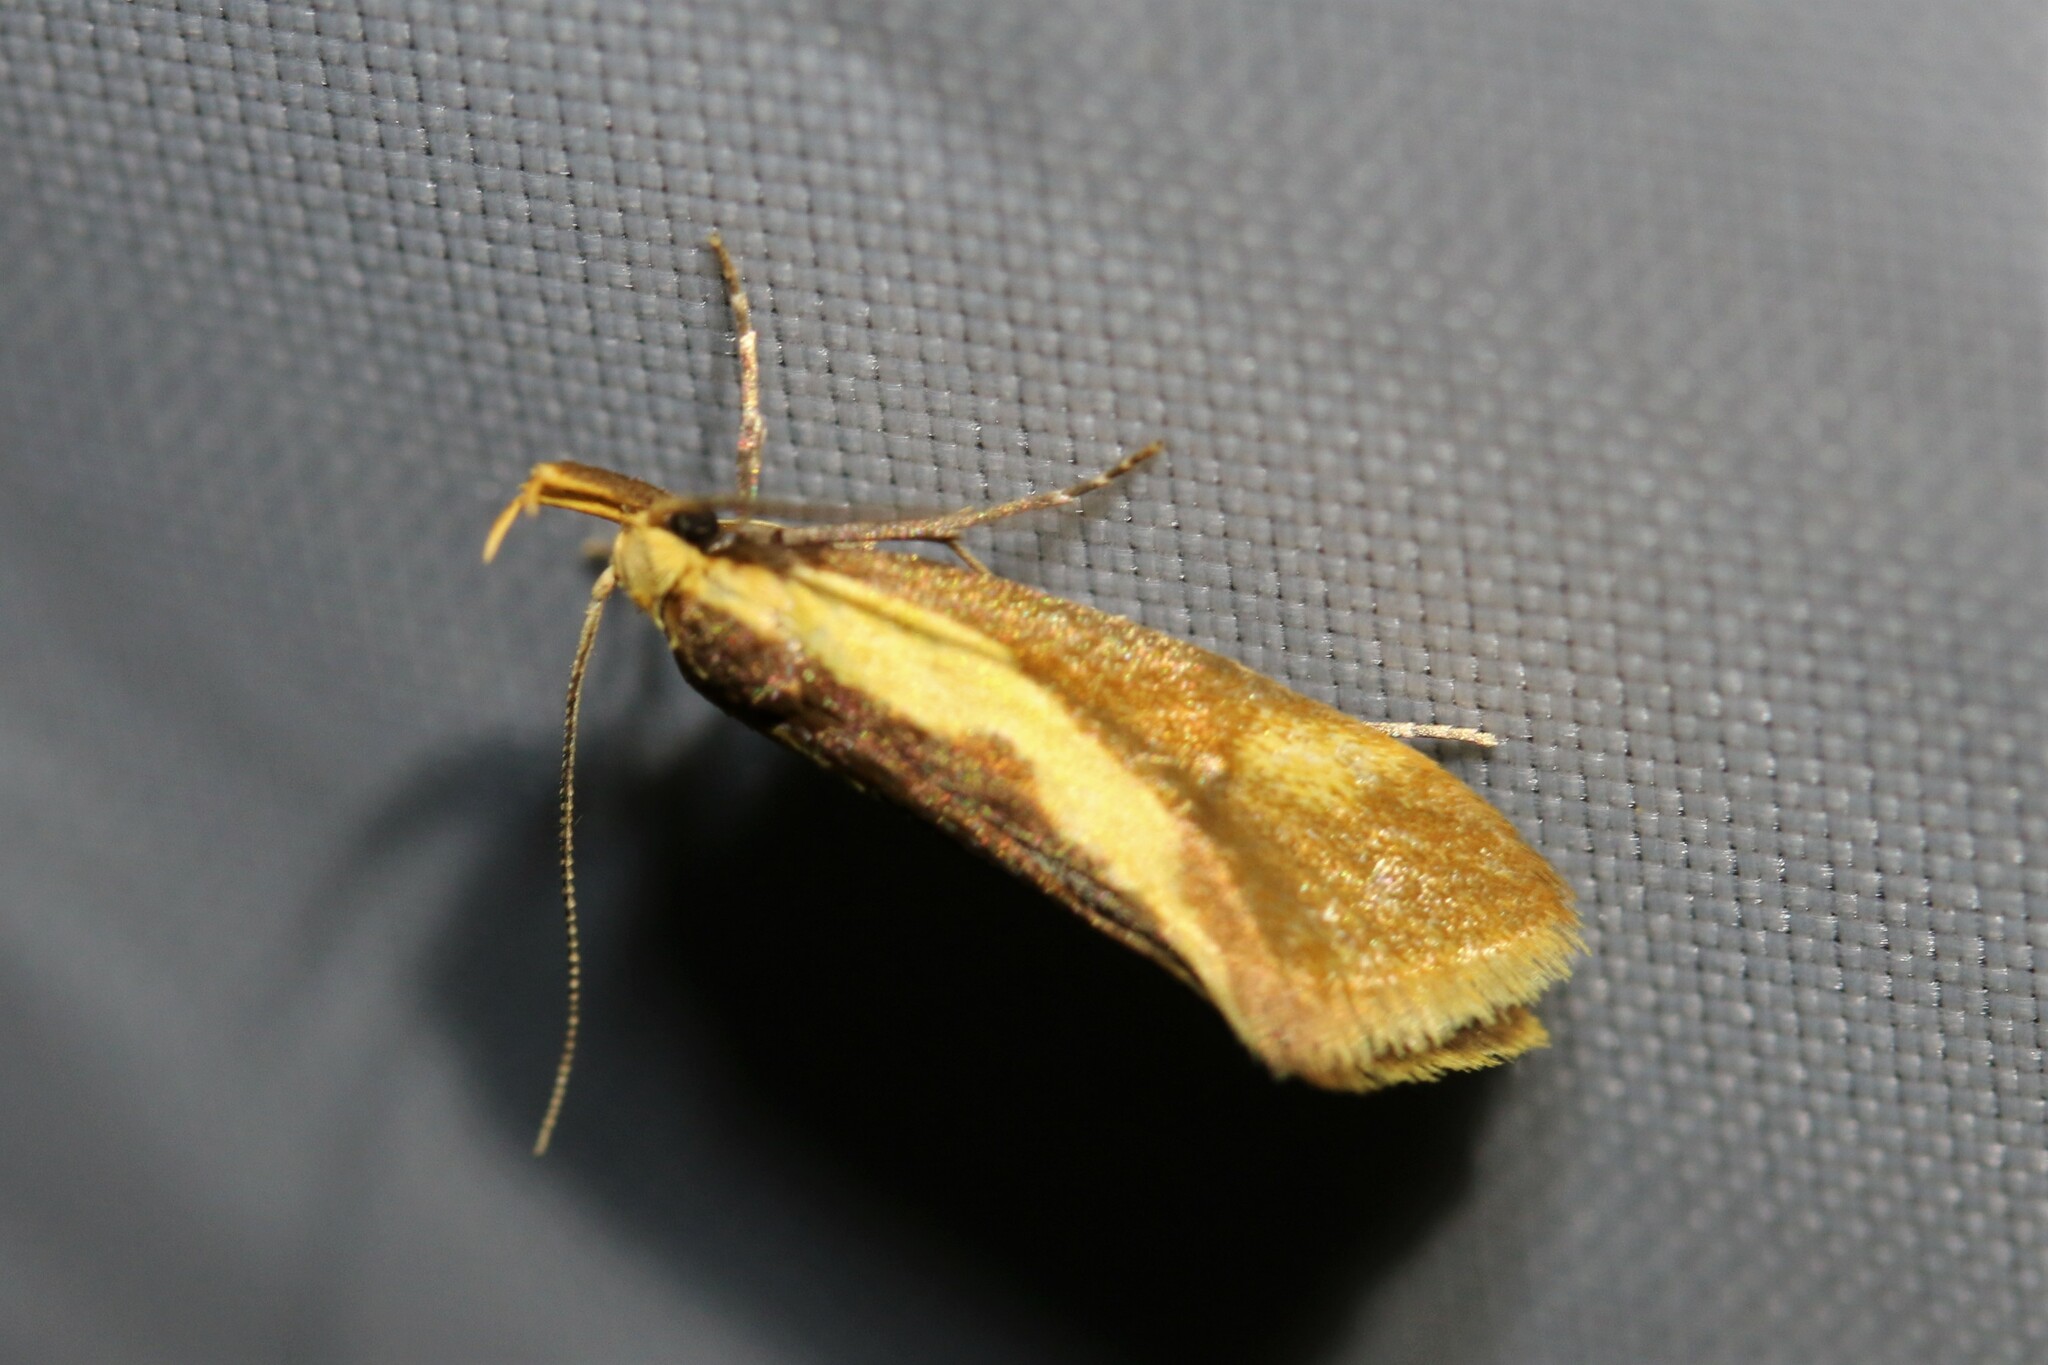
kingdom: Animalia
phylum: Arthropoda
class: Insecta
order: Lepidoptera
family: Oecophoridae
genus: Harpella
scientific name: Harpella forficella
